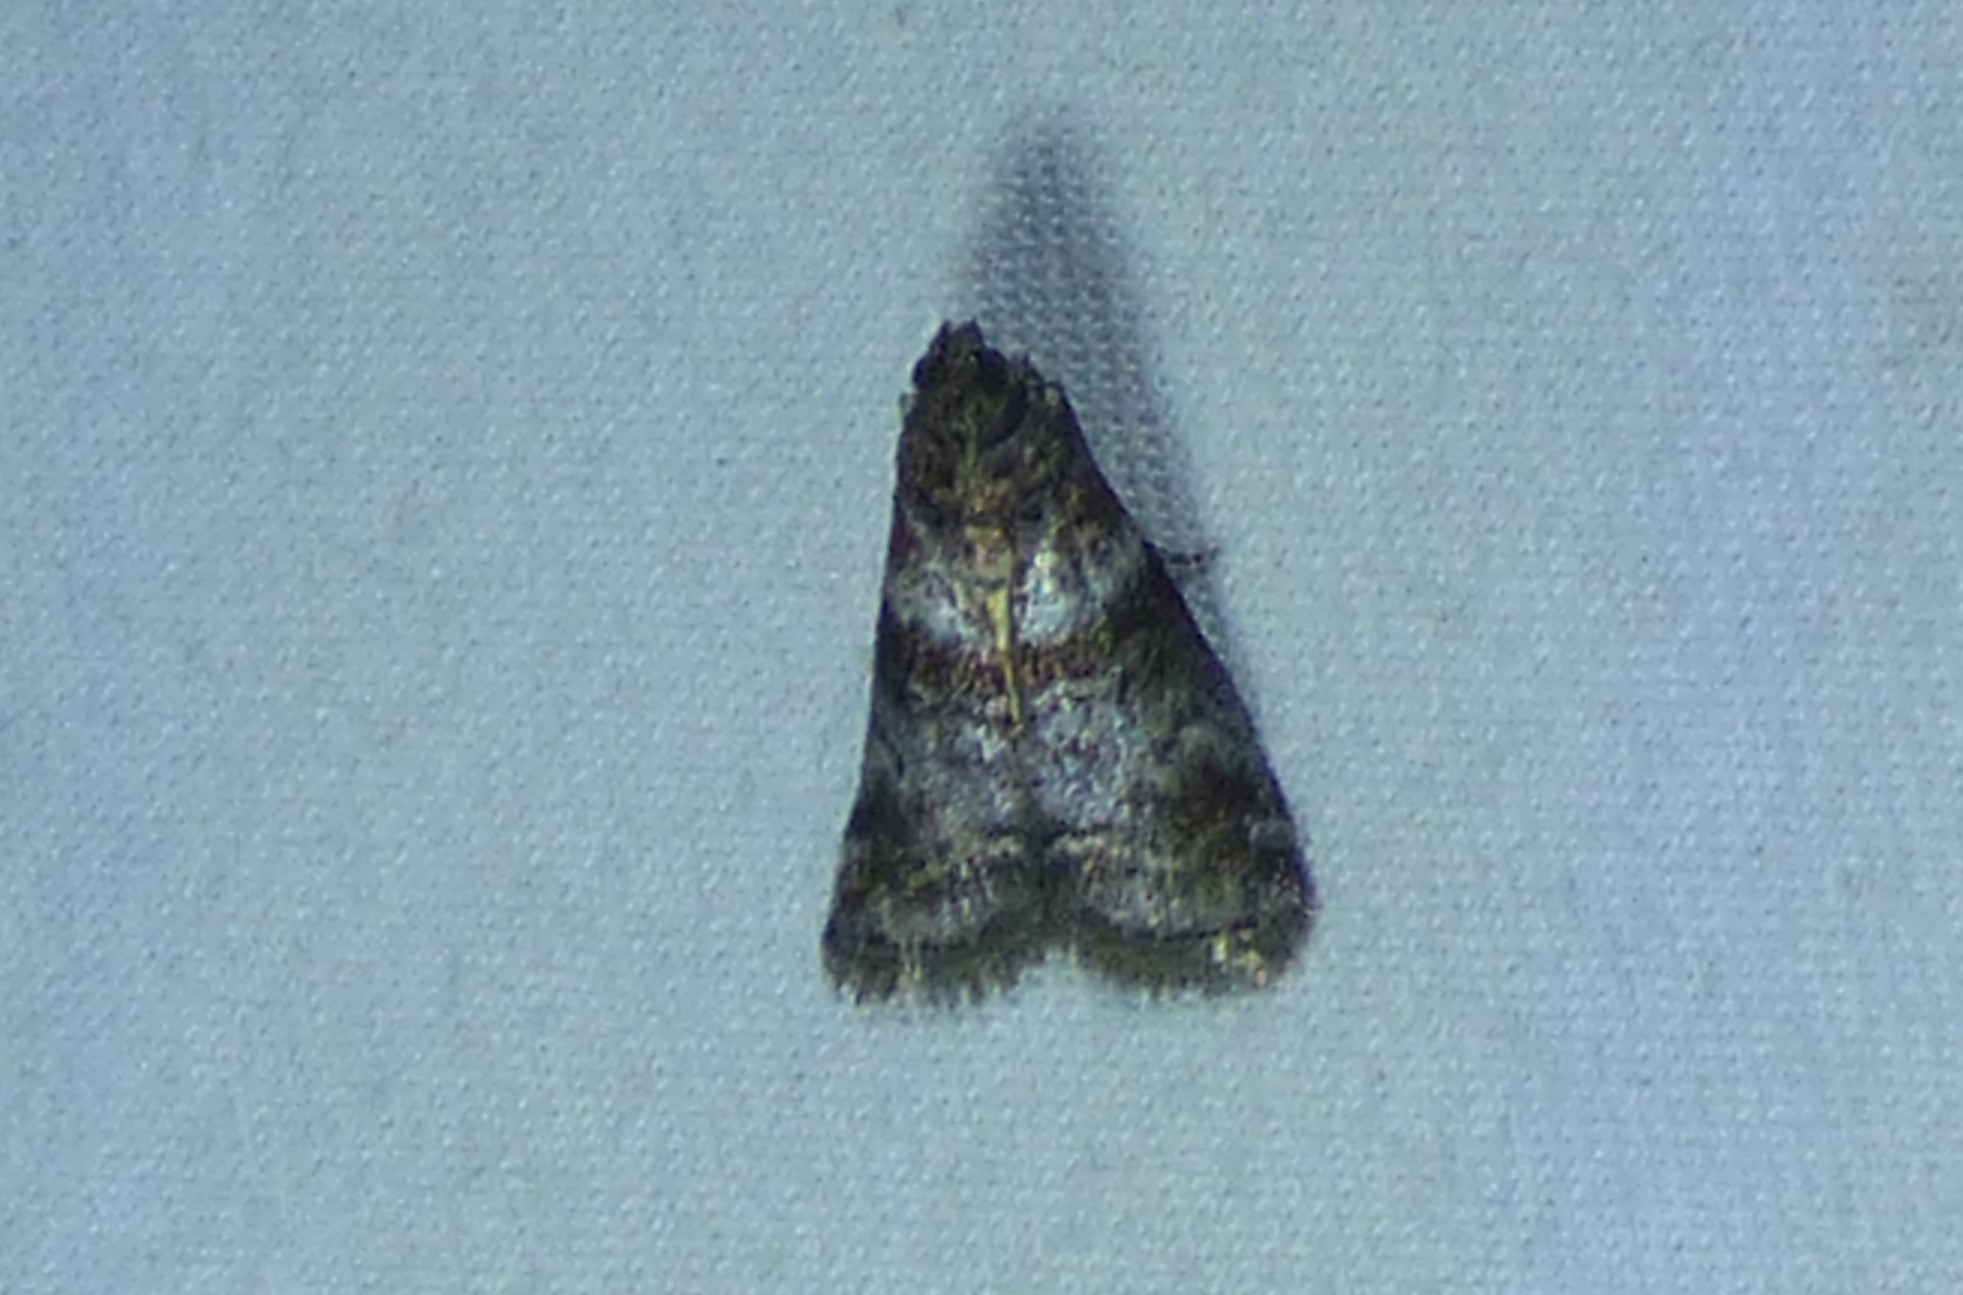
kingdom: Animalia
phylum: Arthropoda
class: Insecta
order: Lepidoptera
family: Pyralidae
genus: Sciota
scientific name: Sciota uvinella
